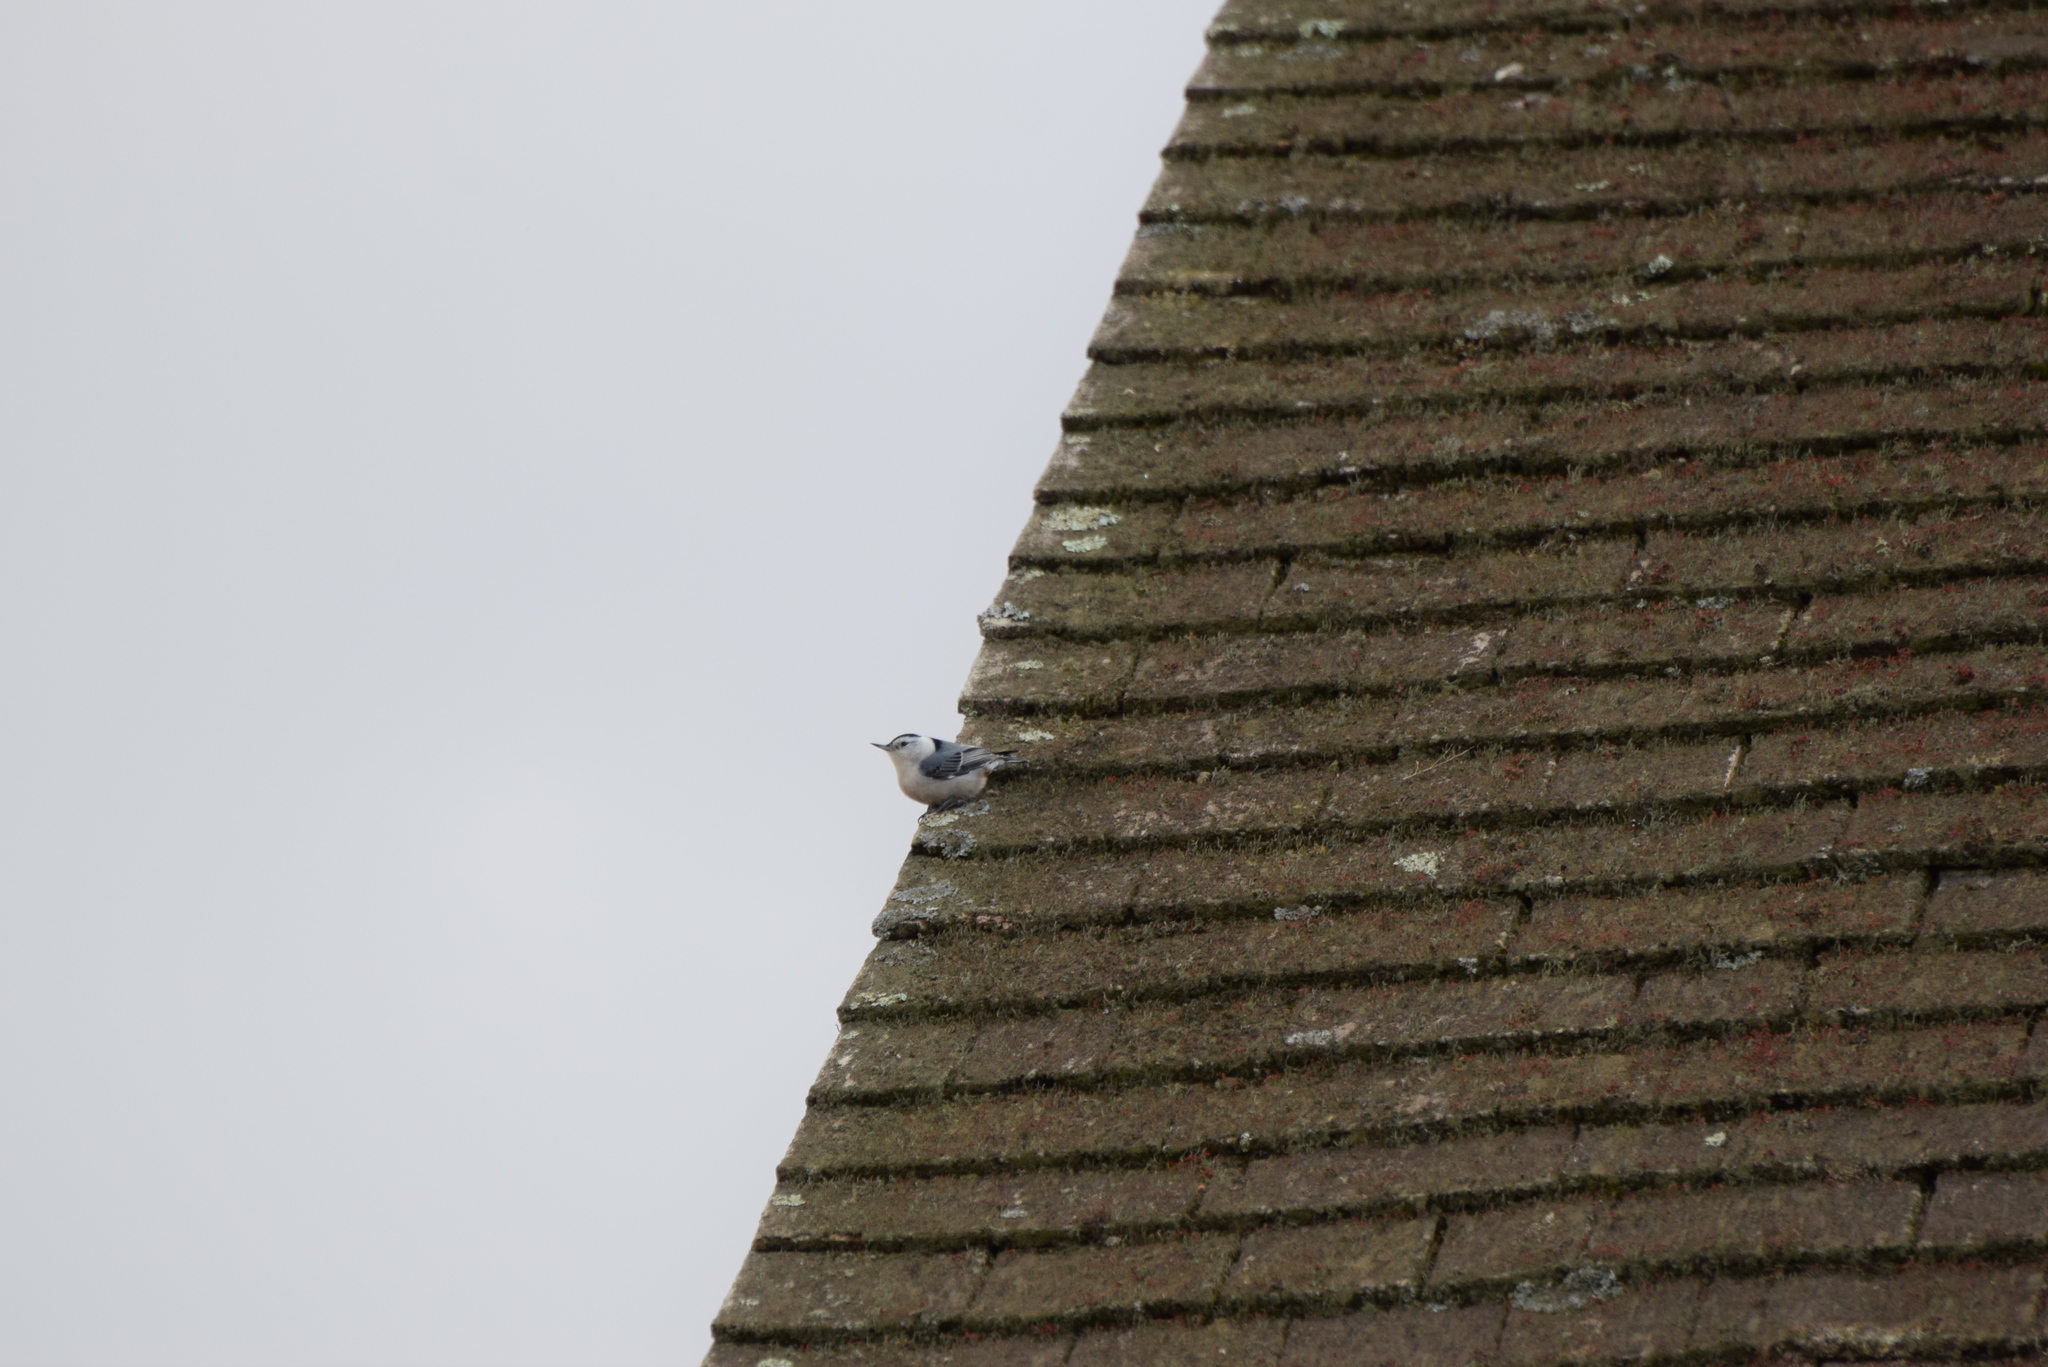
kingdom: Animalia
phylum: Chordata
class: Aves
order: Passeriformes
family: Sittidae
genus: Sitta
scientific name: Sitta carolinensis
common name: White-breasted nuthatch
